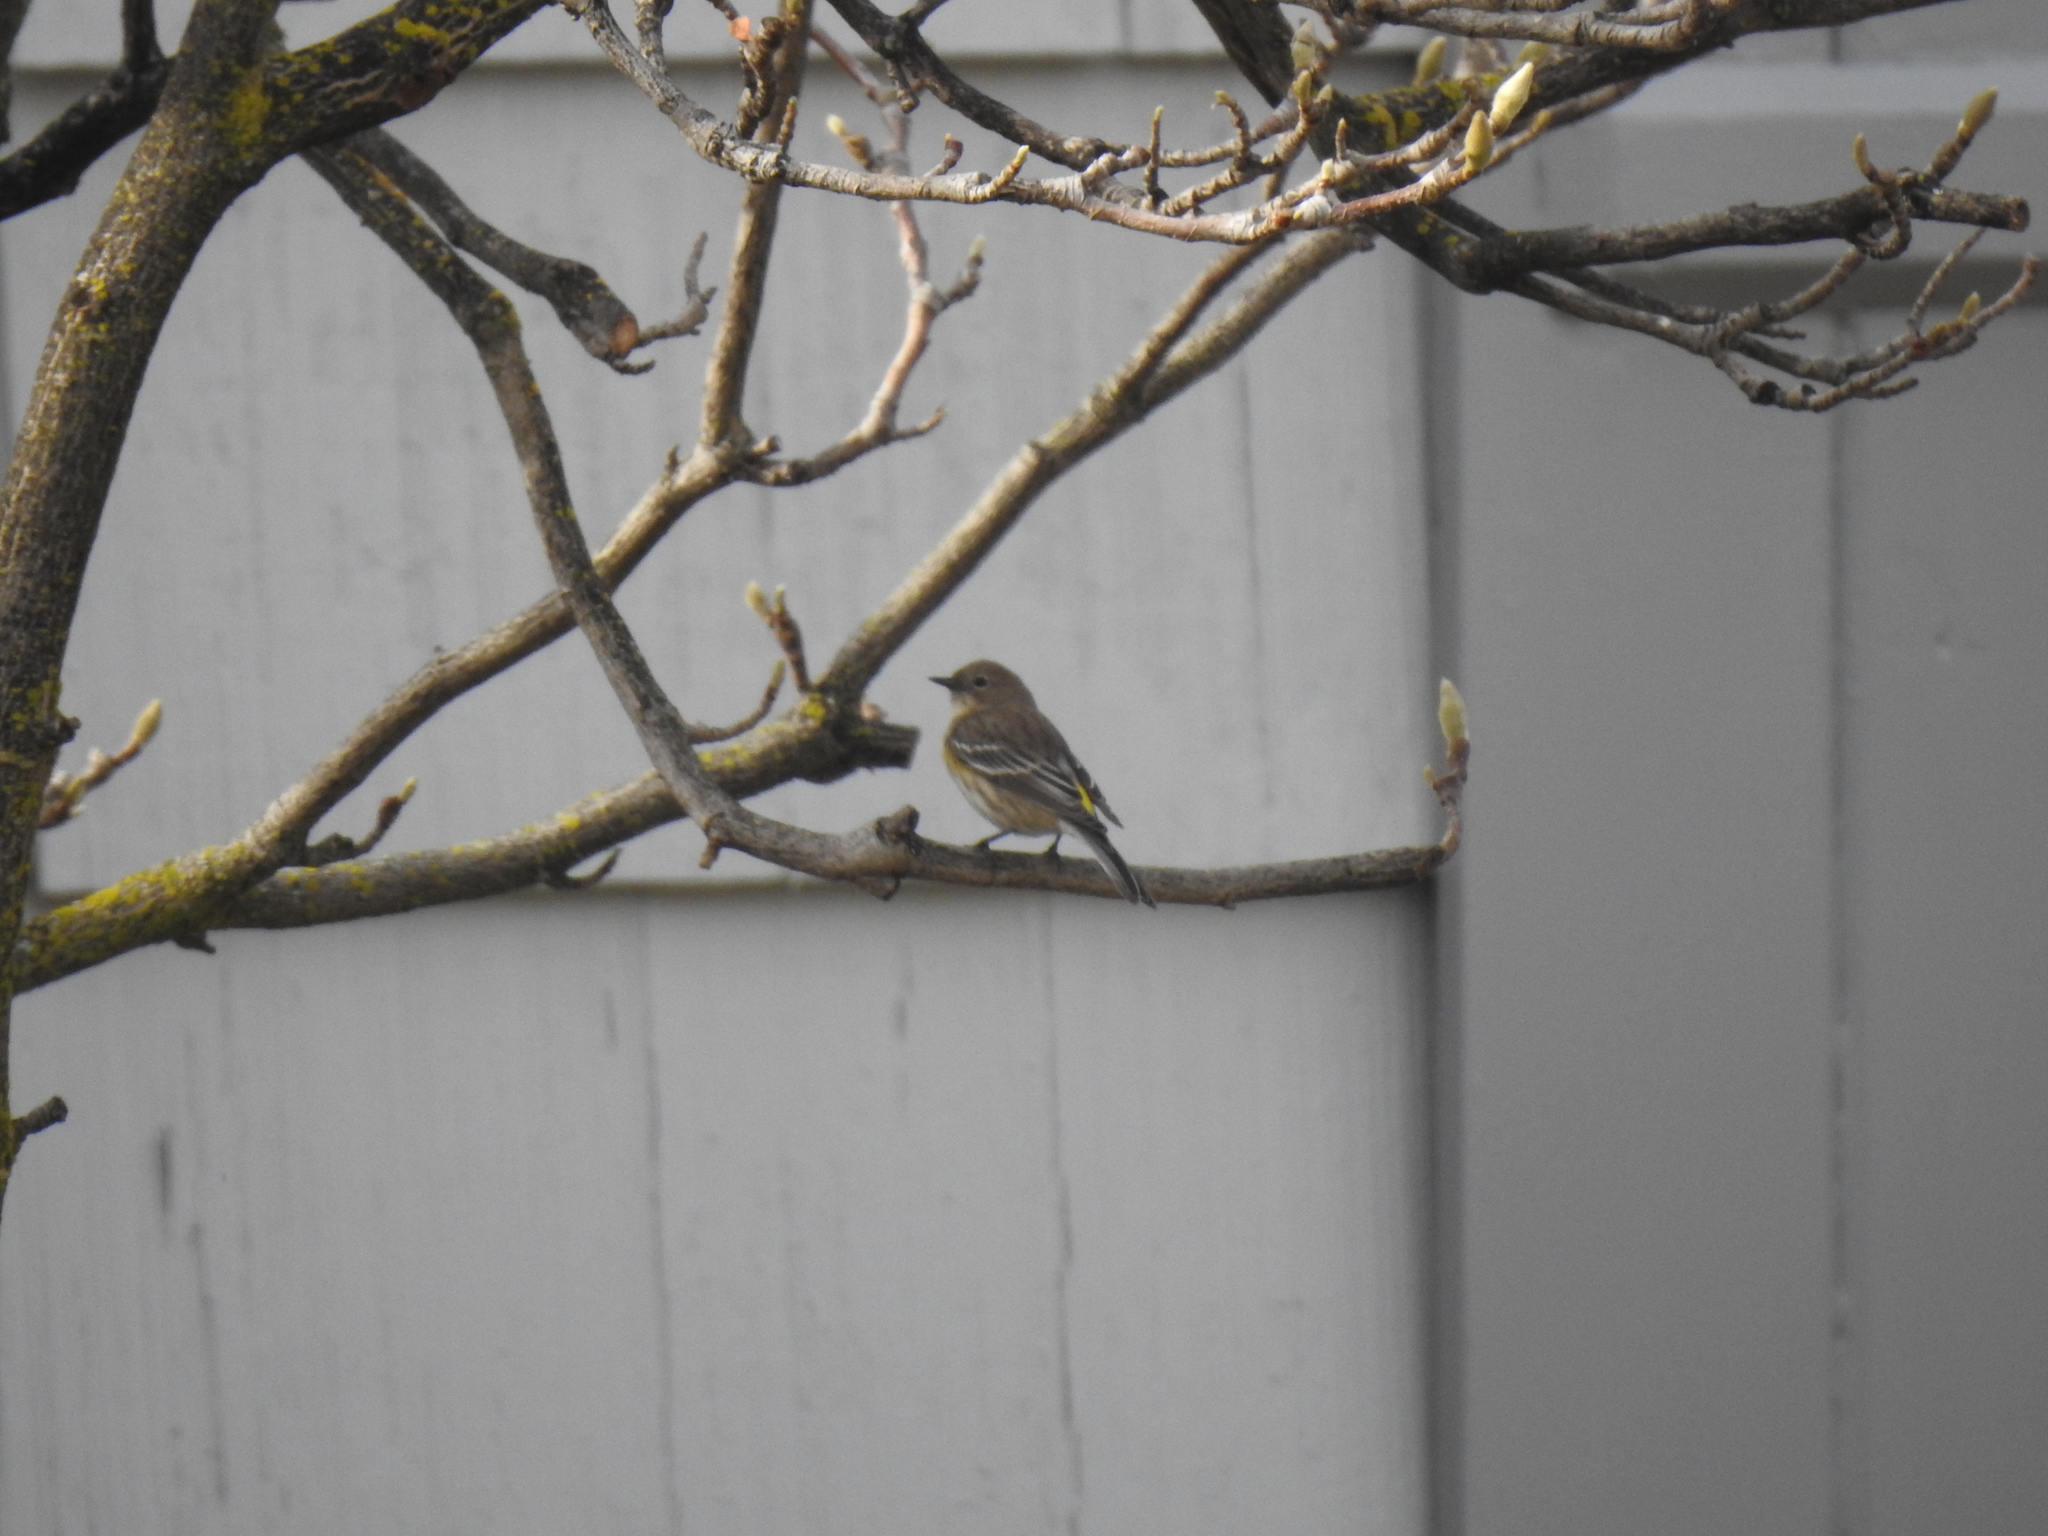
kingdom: Animalia
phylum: Chordata
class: Aves
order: Passeriformes
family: Parulidae
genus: Setophaga
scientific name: Setophaga coronata
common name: Myrtle warbler
